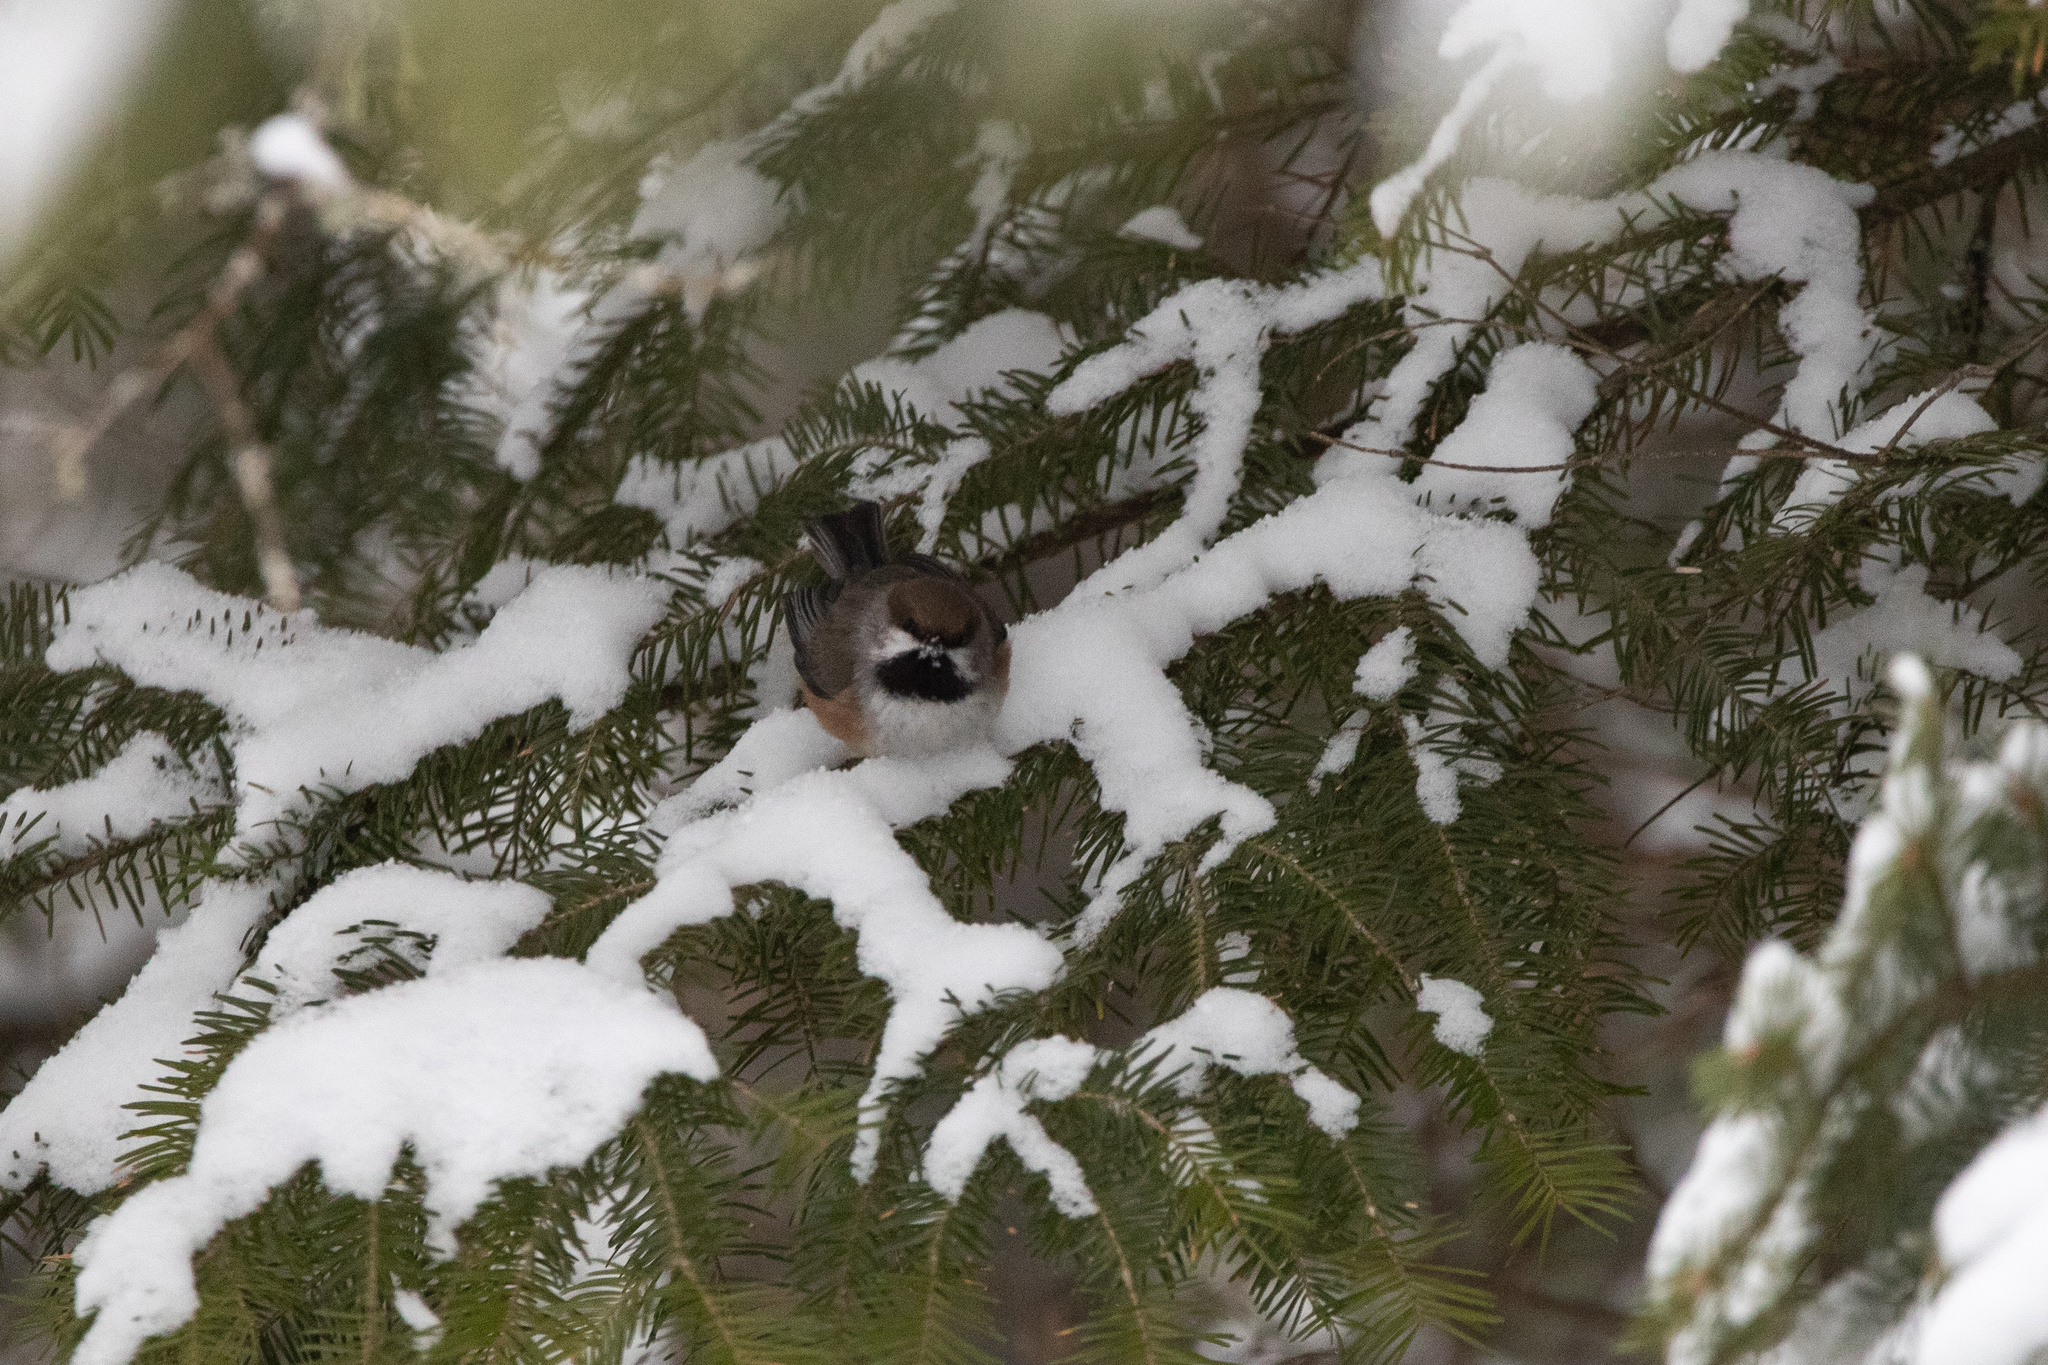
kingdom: Animalia
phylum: Chordata
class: Aves
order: Passeriformes
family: Paridae
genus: Poecile
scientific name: Poecile hudsonicus
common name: Boreal chickadee
